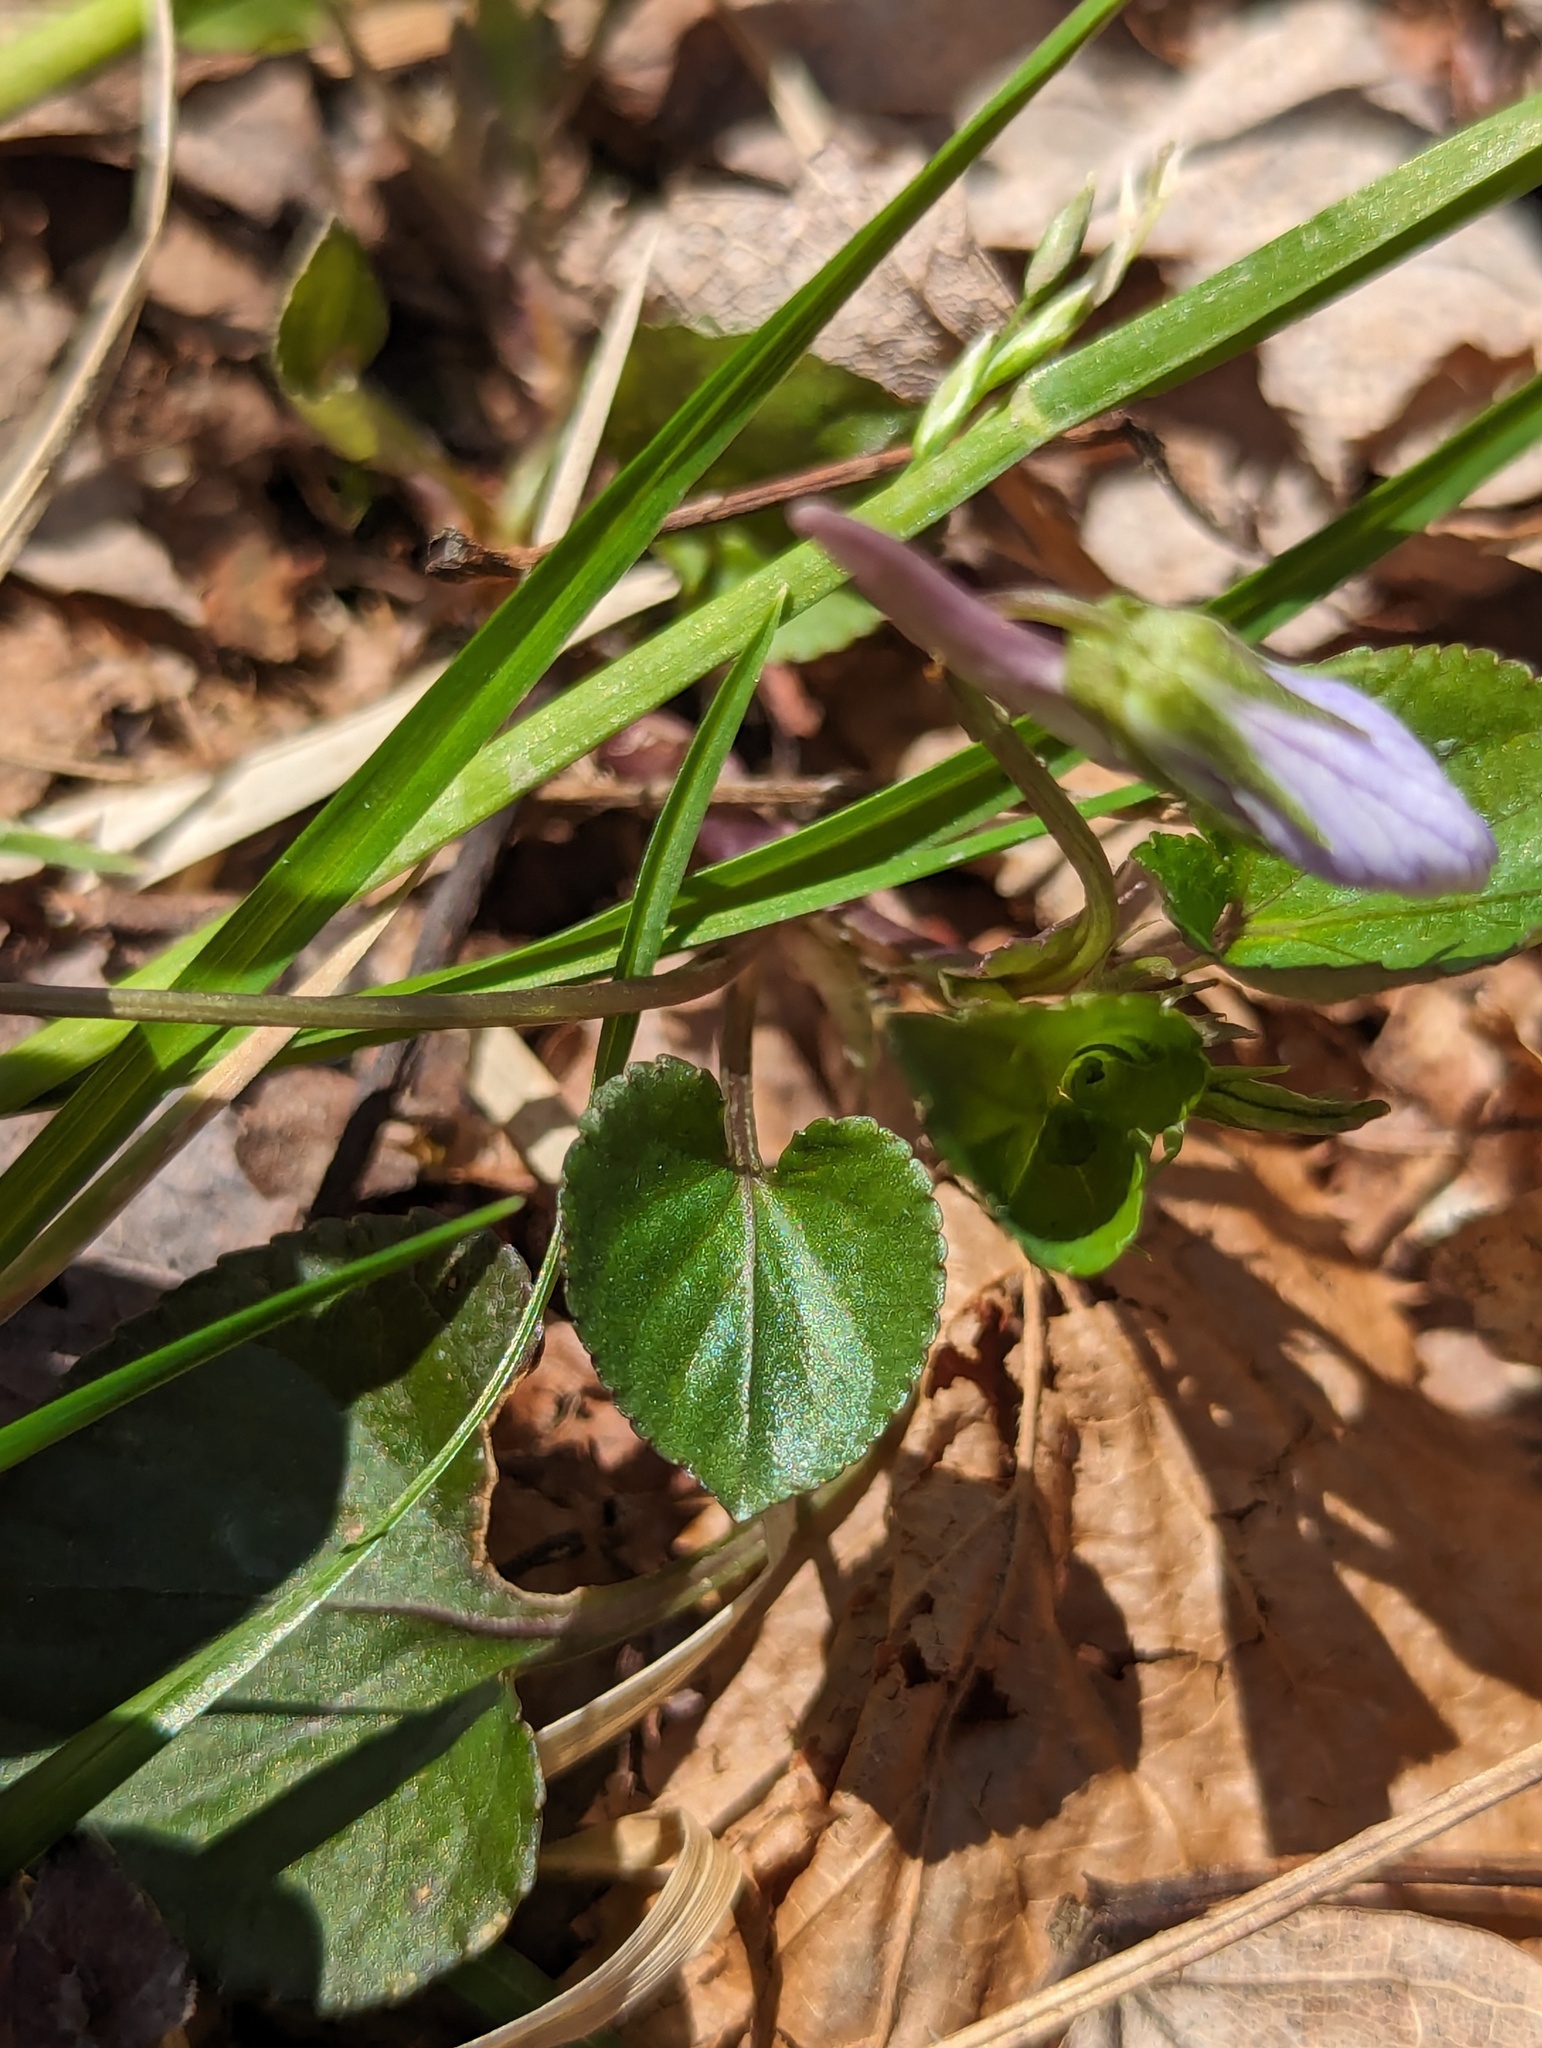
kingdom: Plantae
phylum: Tracheophyta
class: Magnoliopsida
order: Malpighiales
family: Violaceae
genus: Viola
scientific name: Viola rostrata
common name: Long-spur violet
